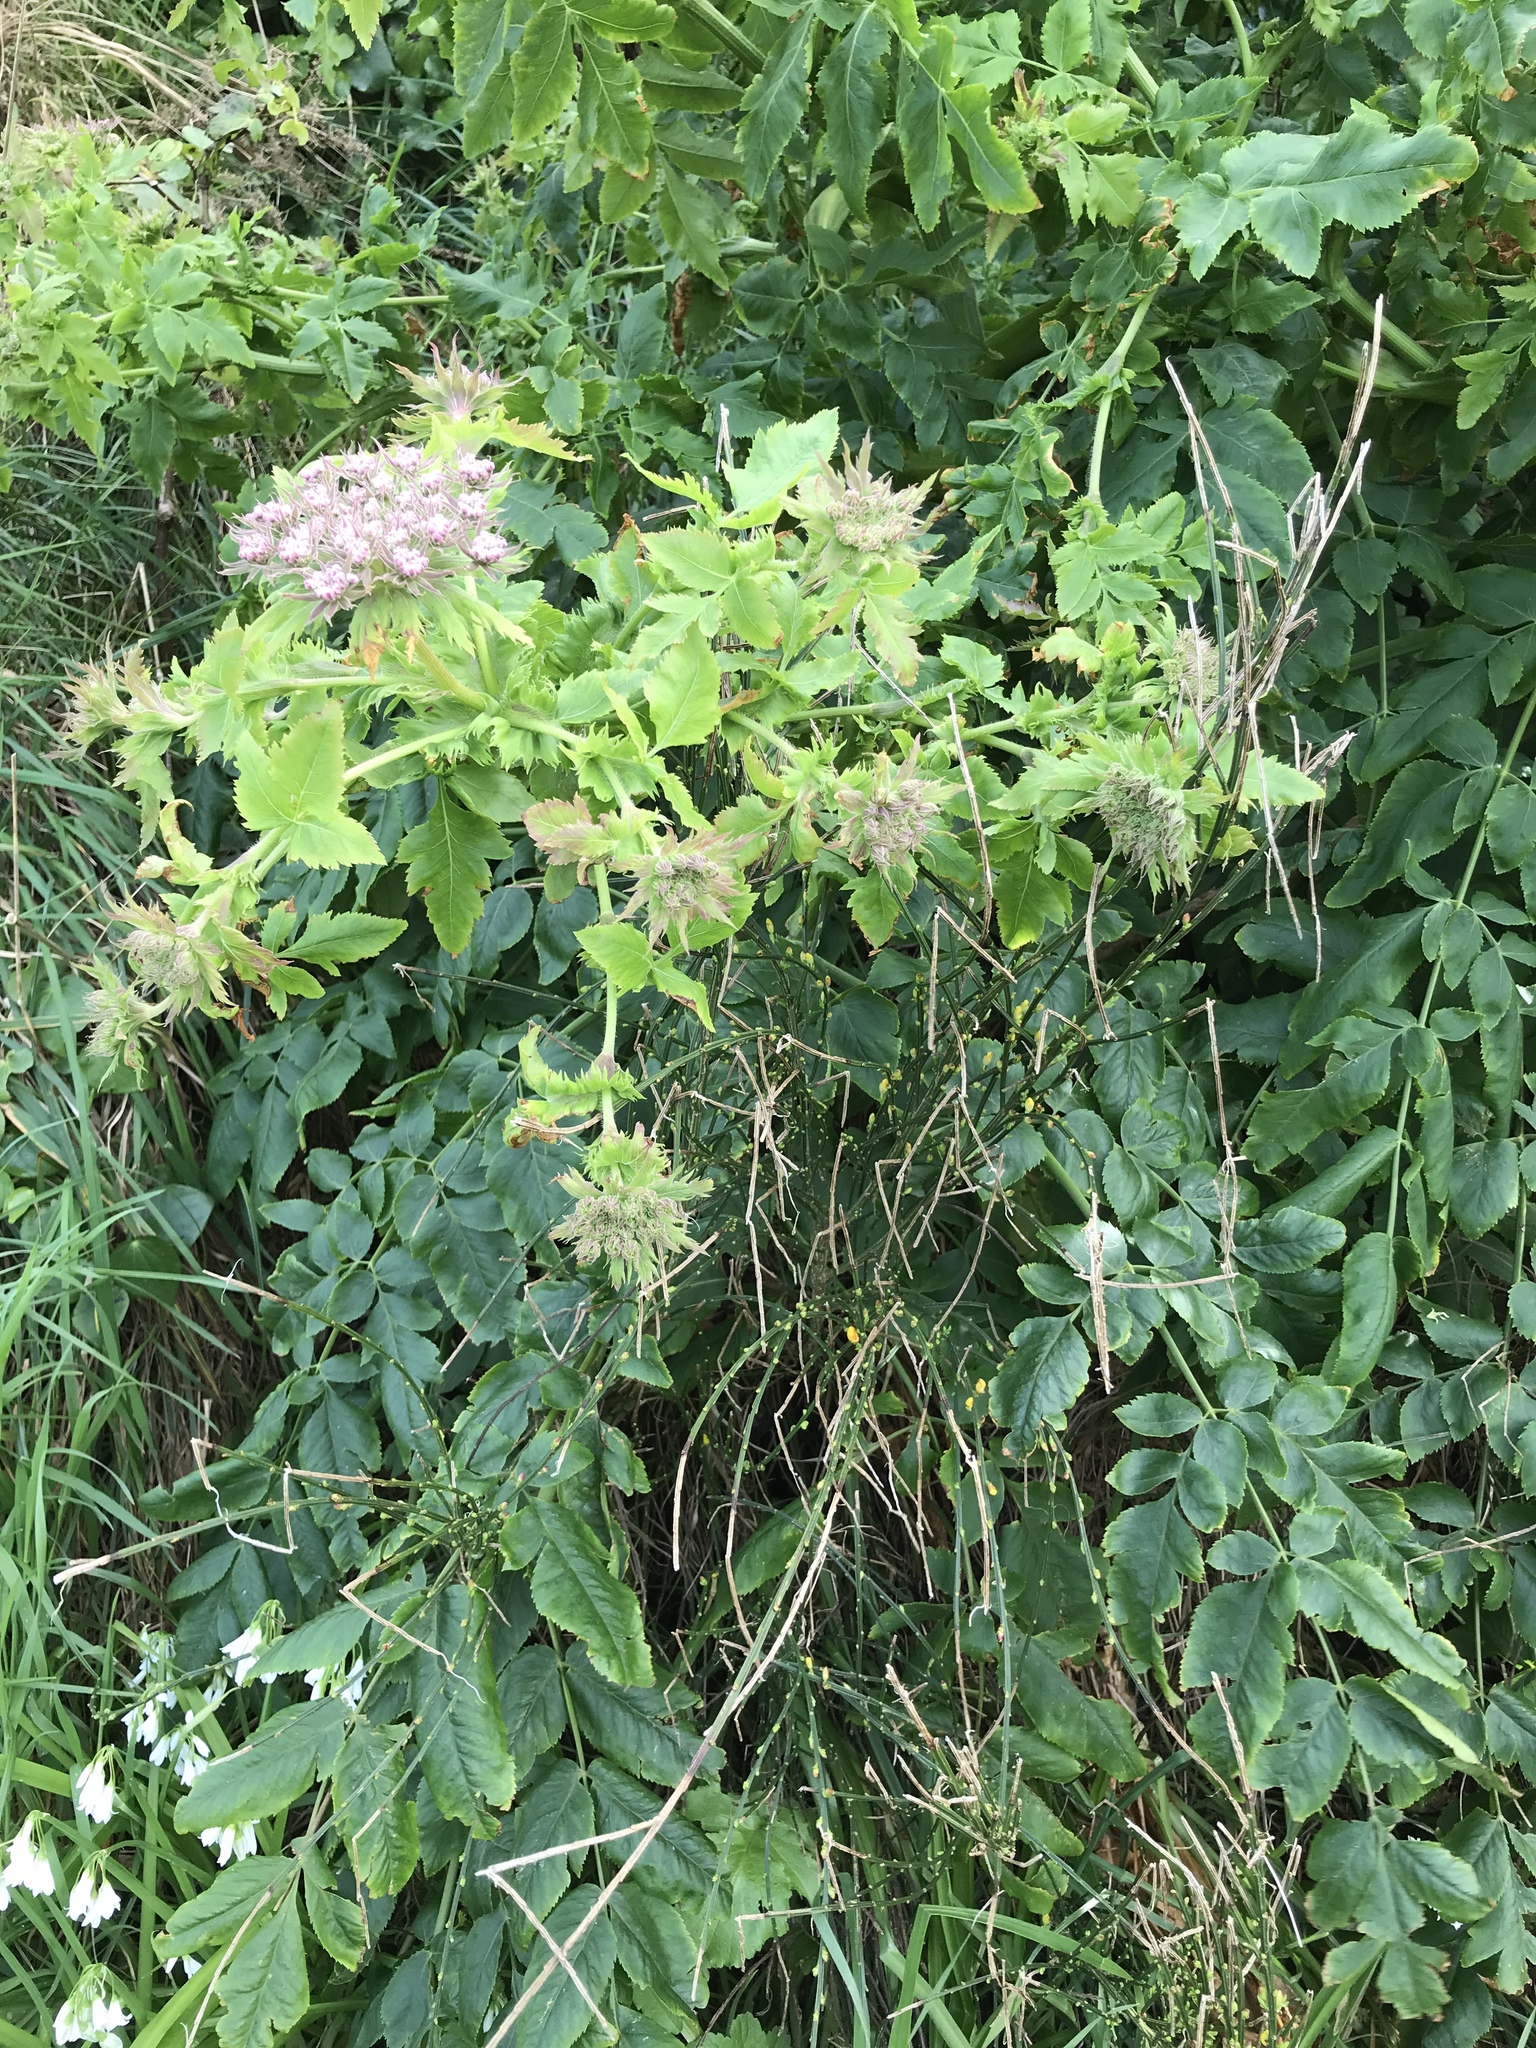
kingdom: Plantae
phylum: Tracheophyta
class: Magnoliopsida
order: Apiales
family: Apiaceae
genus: Daucus
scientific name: Daucus decipiens
